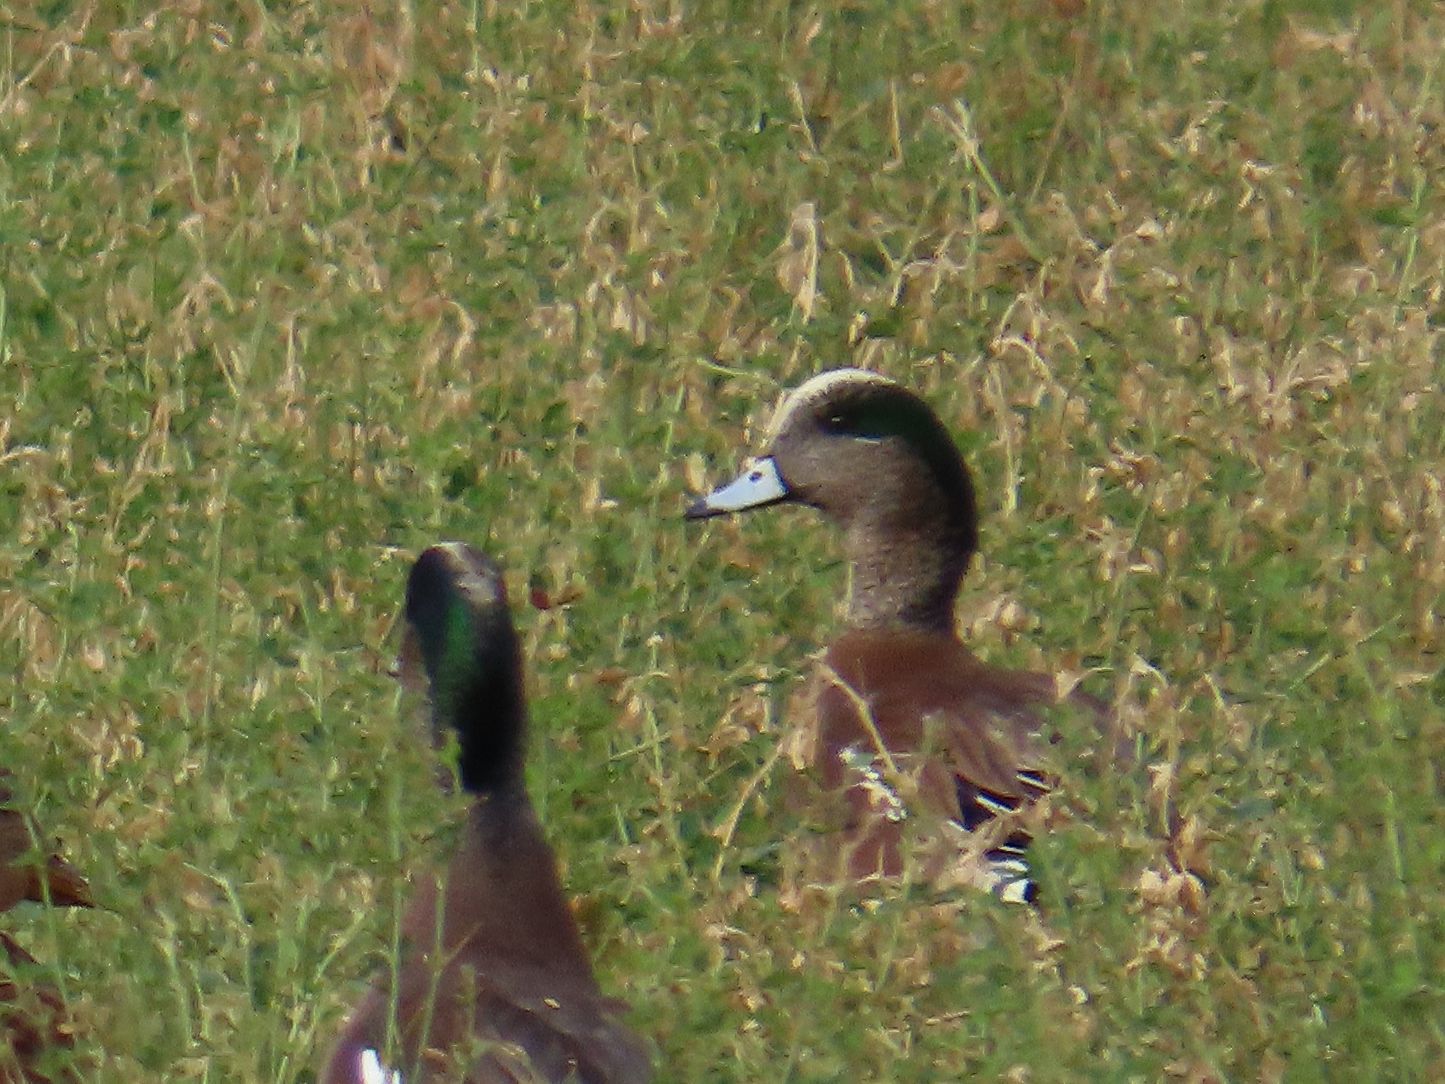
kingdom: Animalia
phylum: Chordata
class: Aves
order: Anseriformes
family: Anatidae
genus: Mareca
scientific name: Mareca americana
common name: American wigeon
